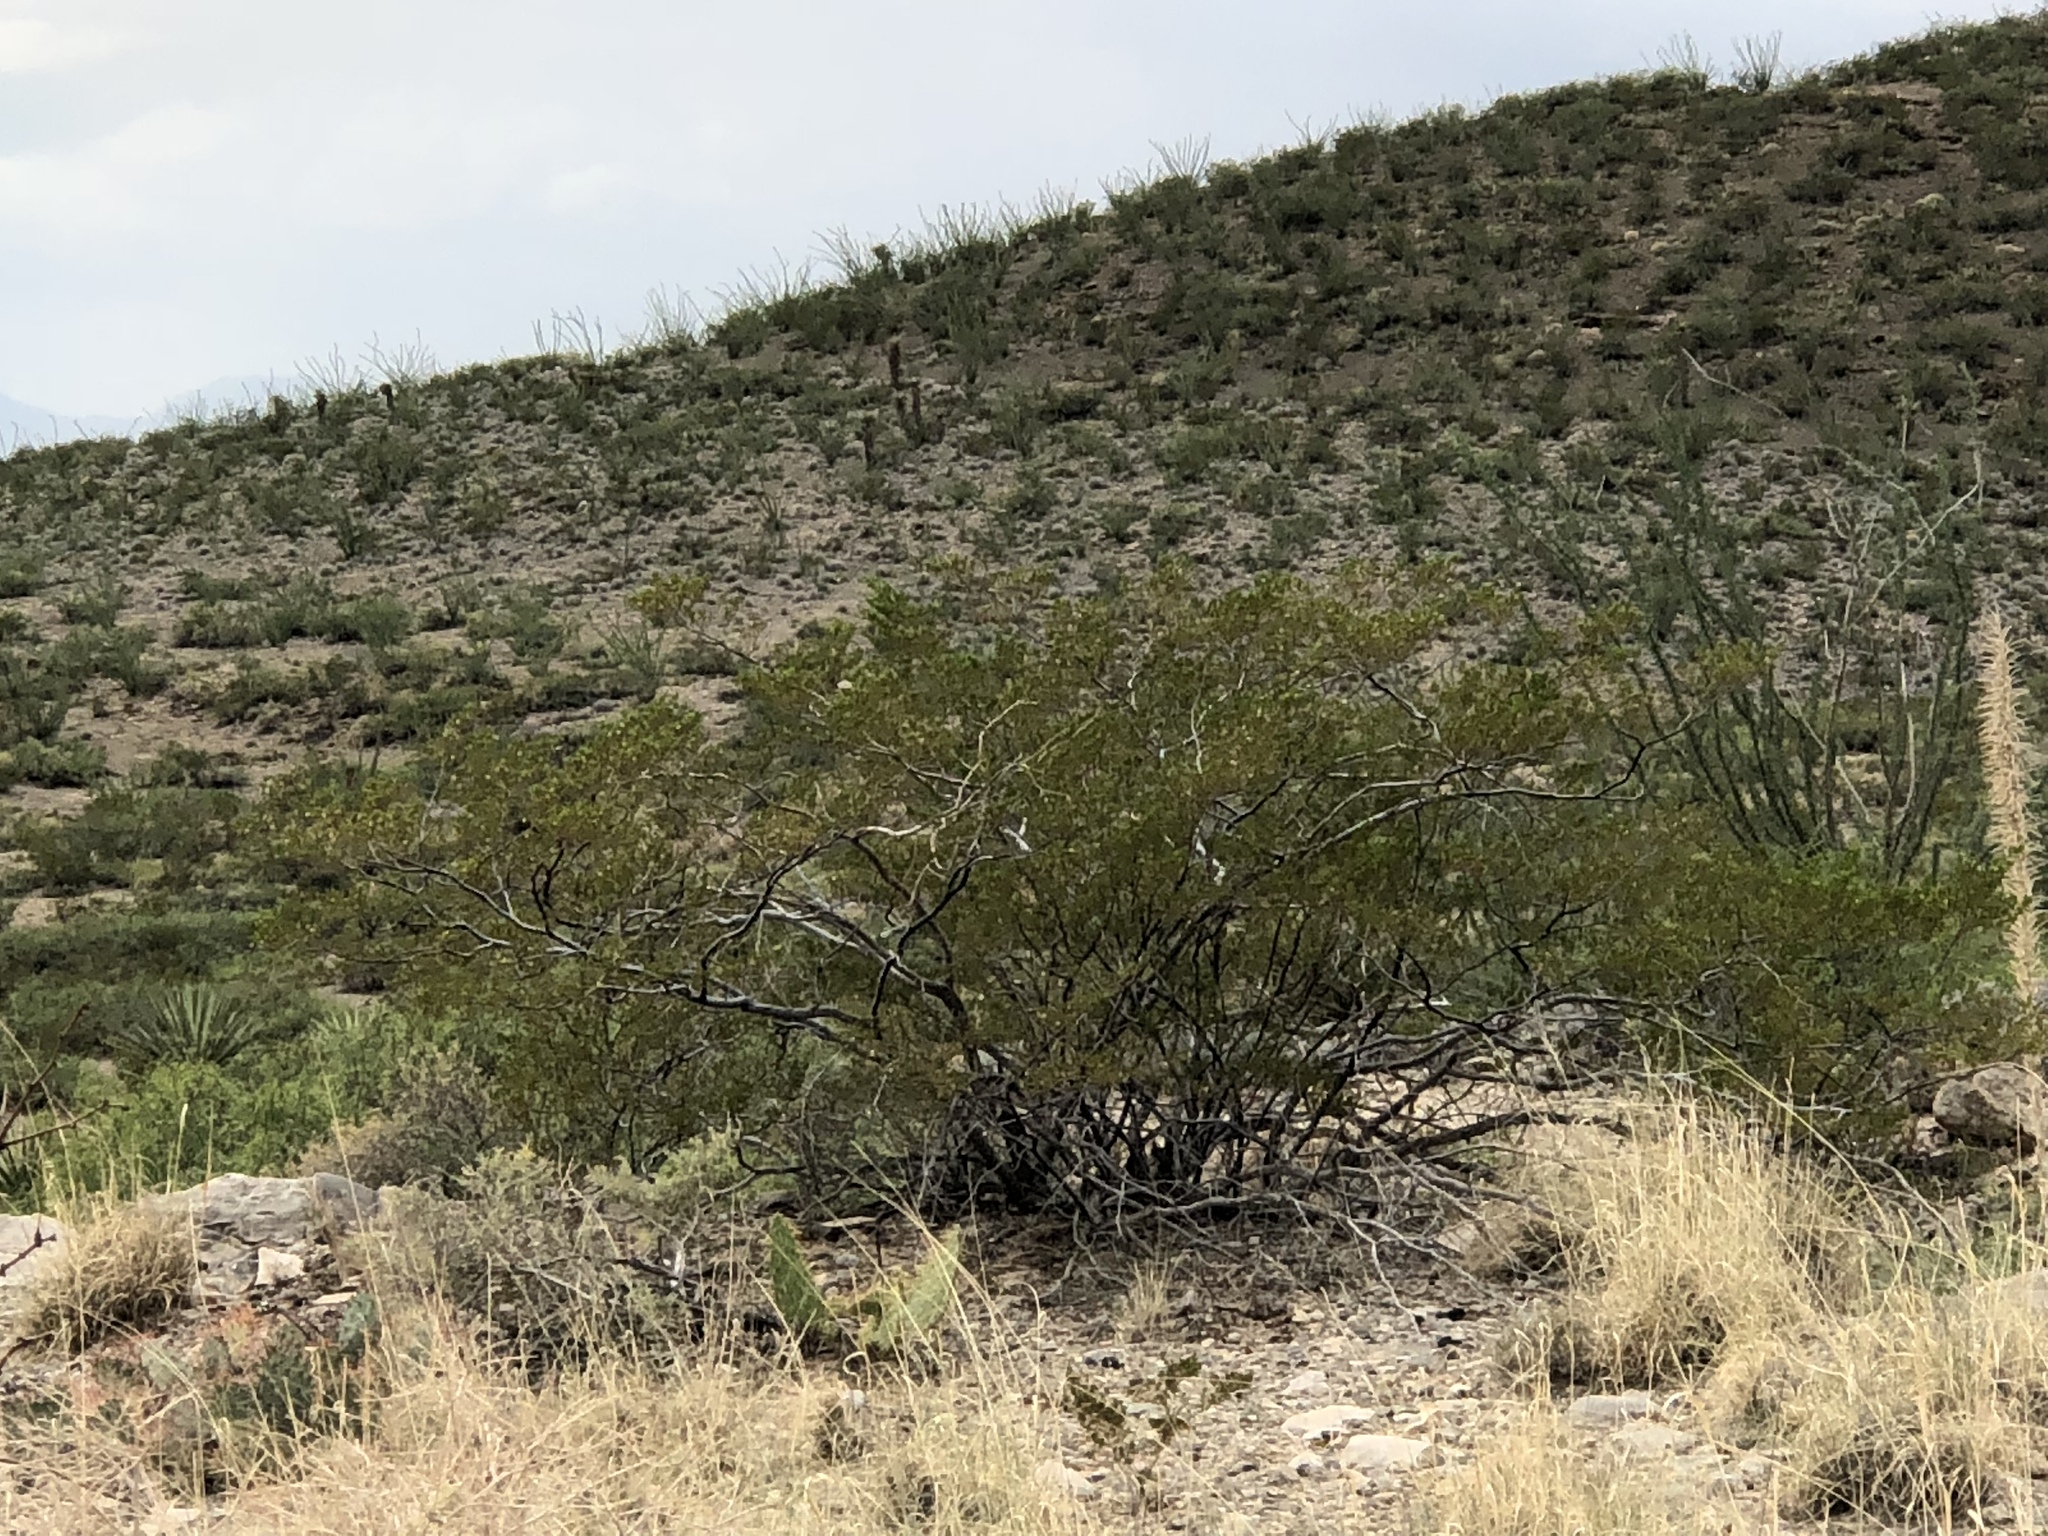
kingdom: Plantae
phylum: Tracheophyta
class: Magnoliopsida
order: Zygophyllales
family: Zygophyllaceae
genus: Larrea
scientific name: Larrea tridentata
